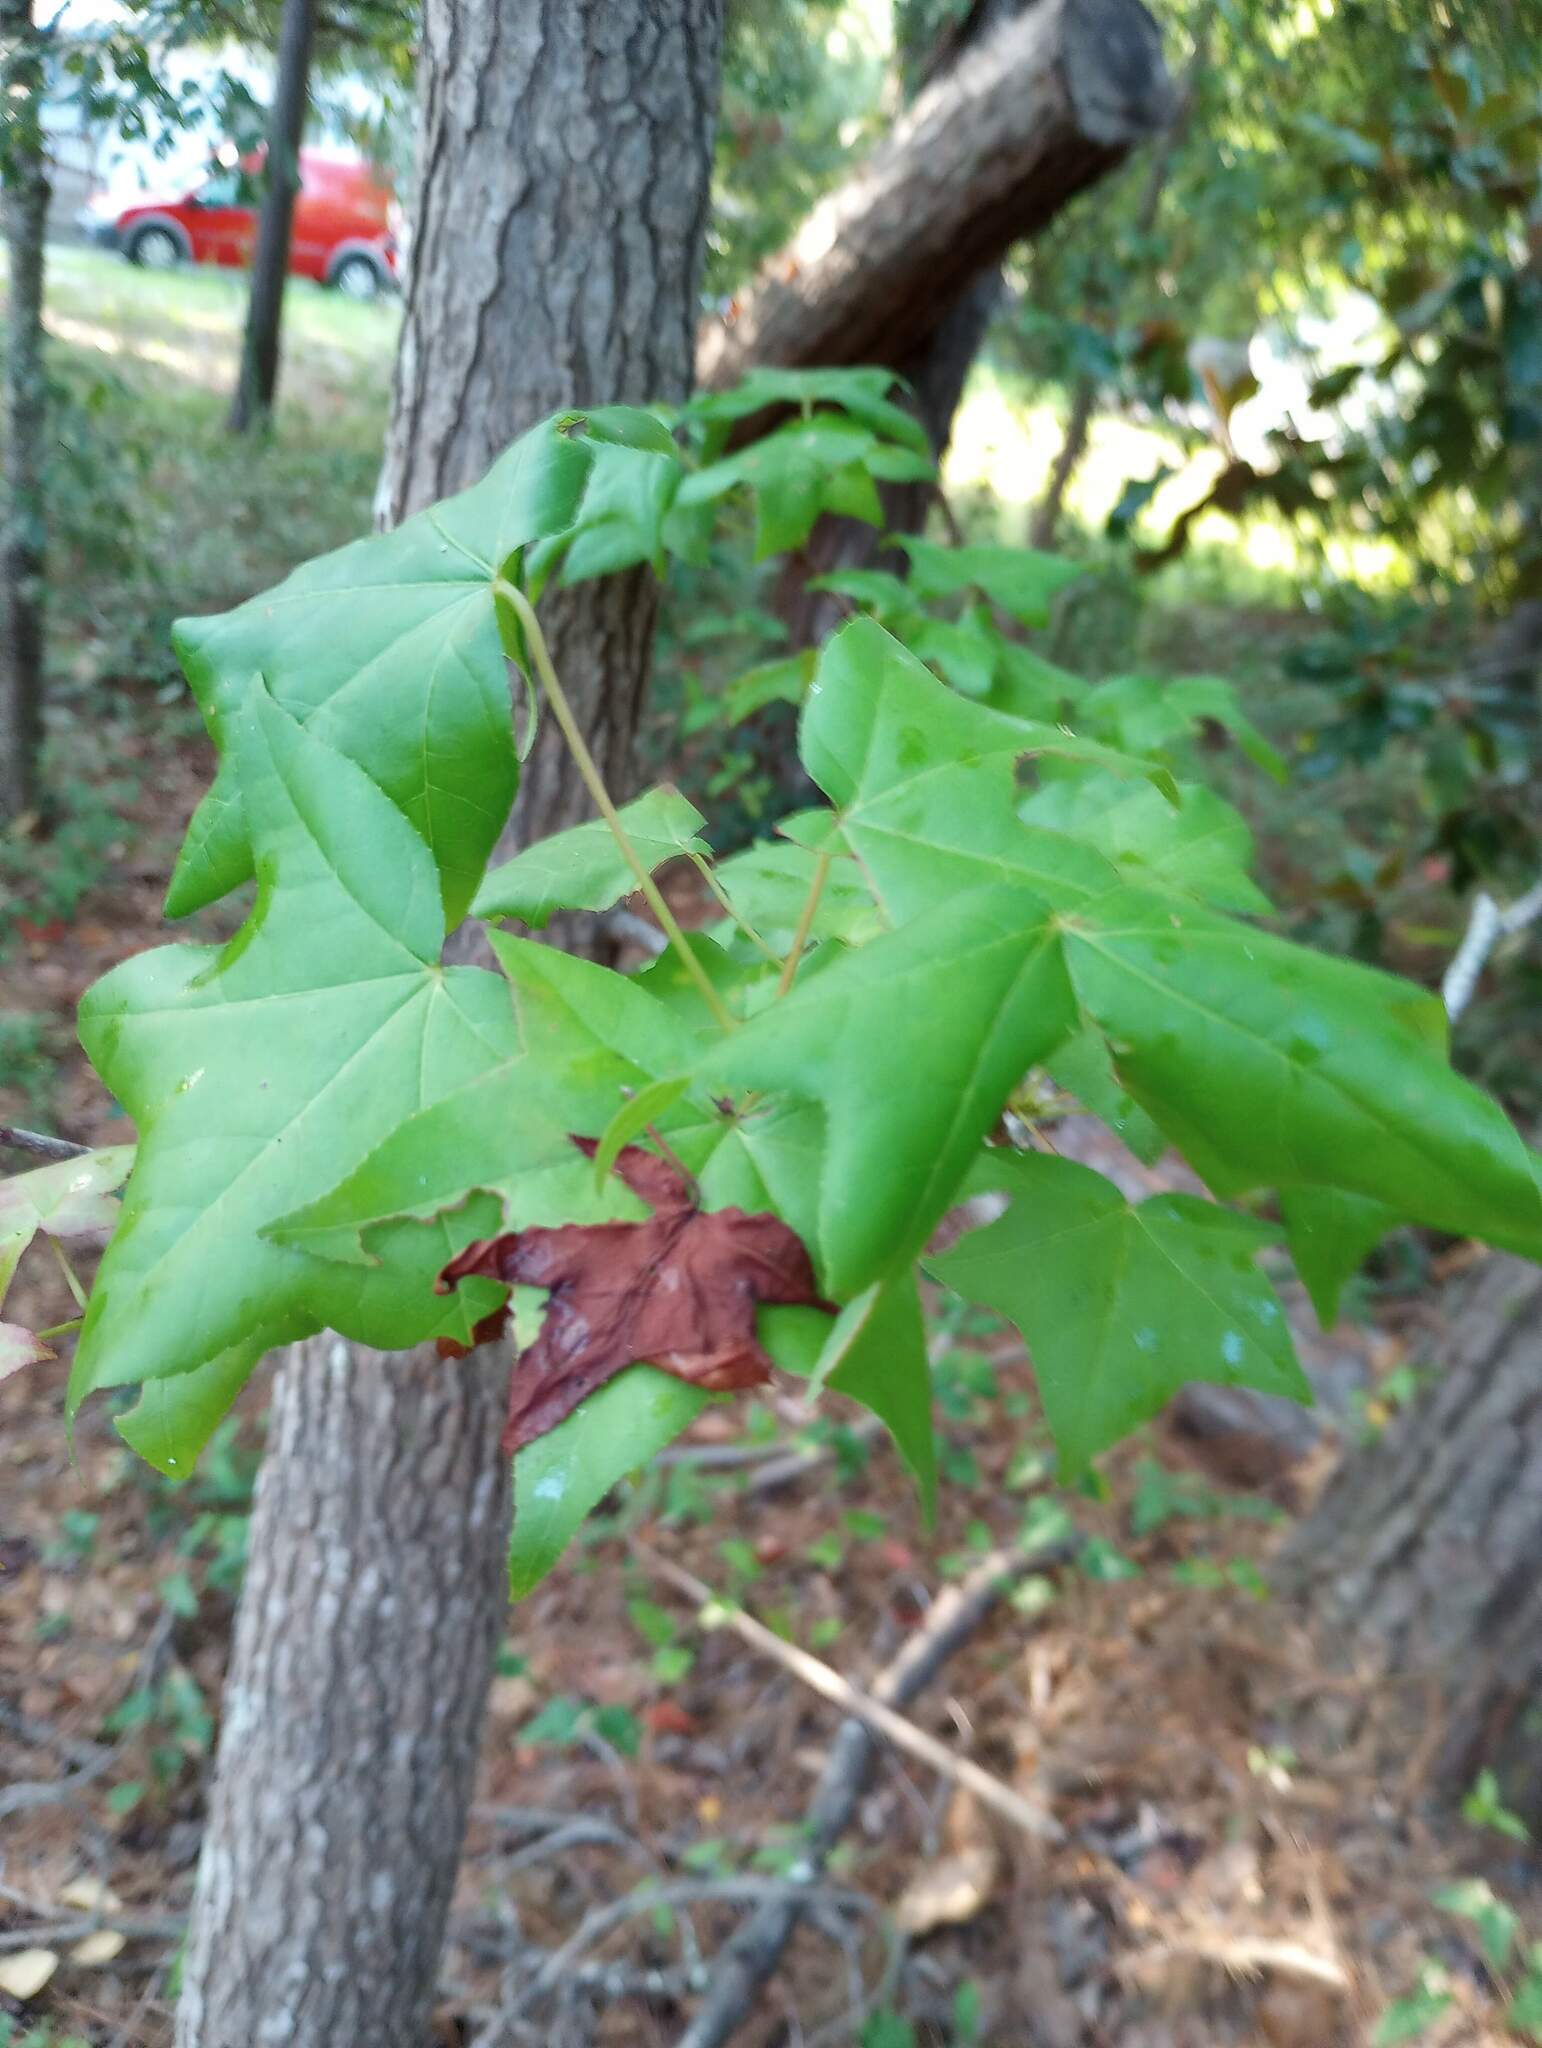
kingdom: Plantae
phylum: Tracheophyta
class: Magnoliopsida
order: Saxifragales
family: Altingiaceae
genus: Liquidambar
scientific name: Liquidambar styraciflua
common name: Sweet gum
